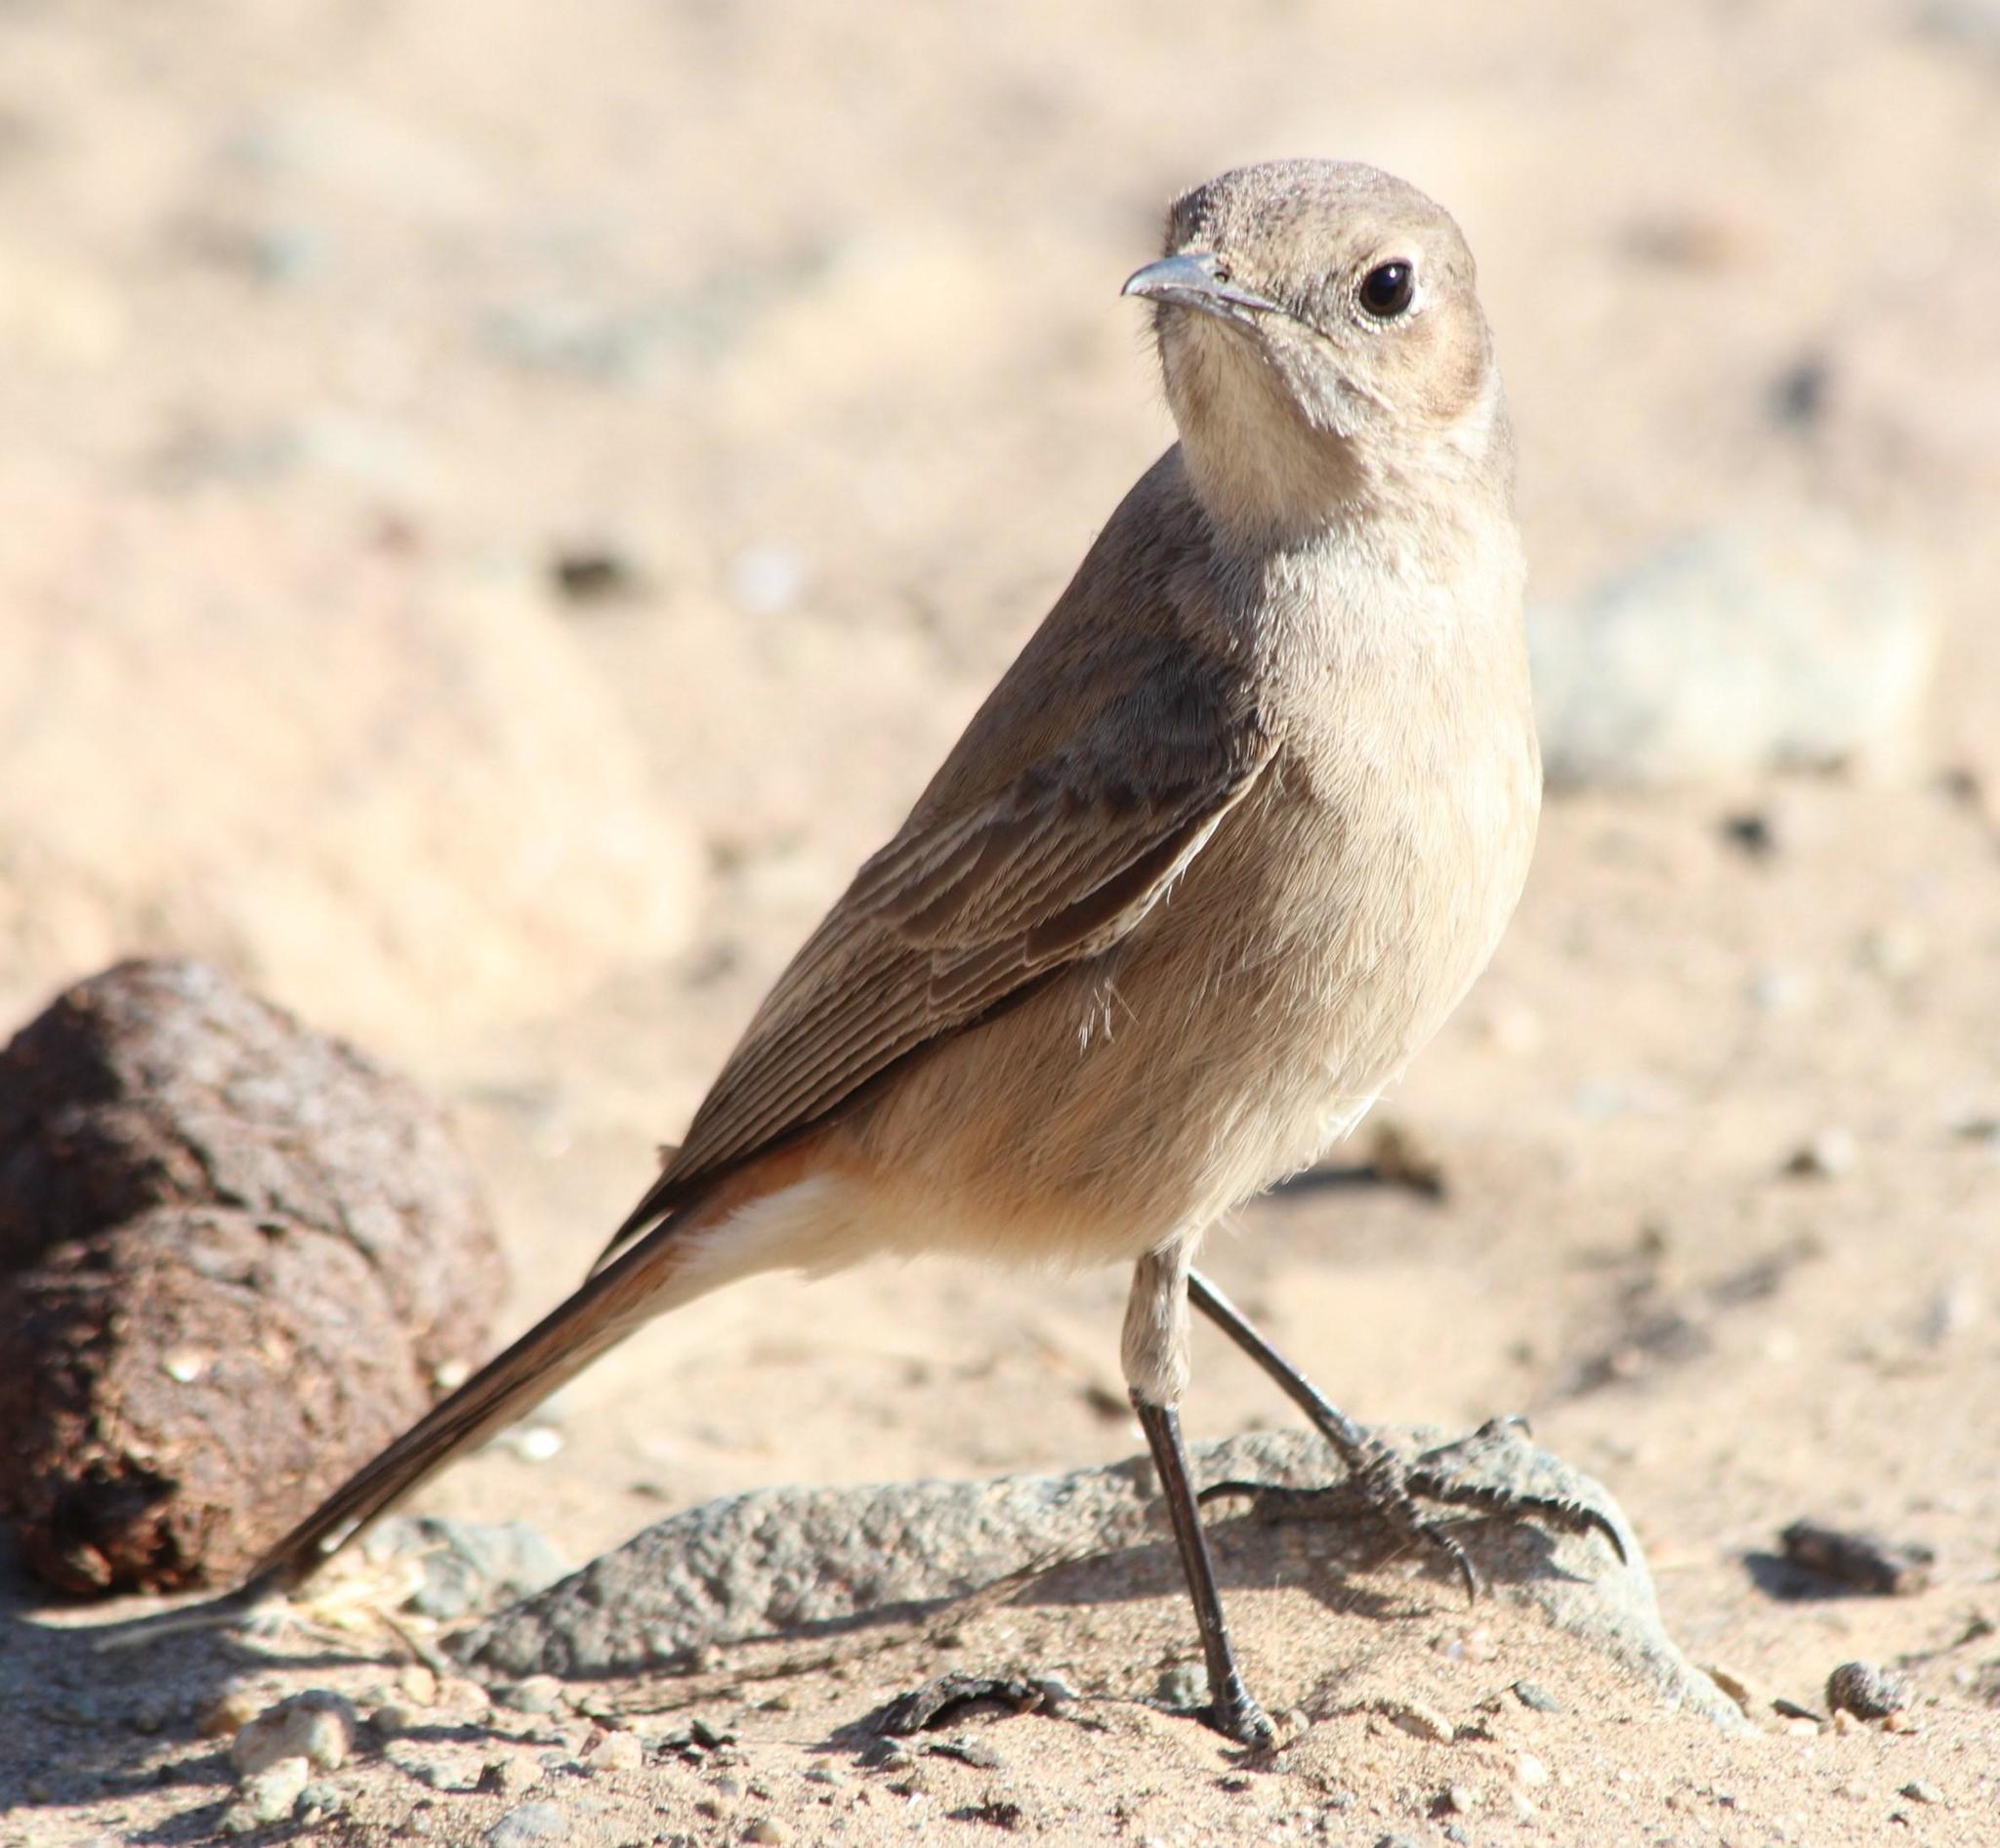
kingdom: Animalia
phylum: Chordata
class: Aves
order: Passeriformes
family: Muscicapidae
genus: Oenanthe
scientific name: Oenanthe familiaris
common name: Familiar chat
